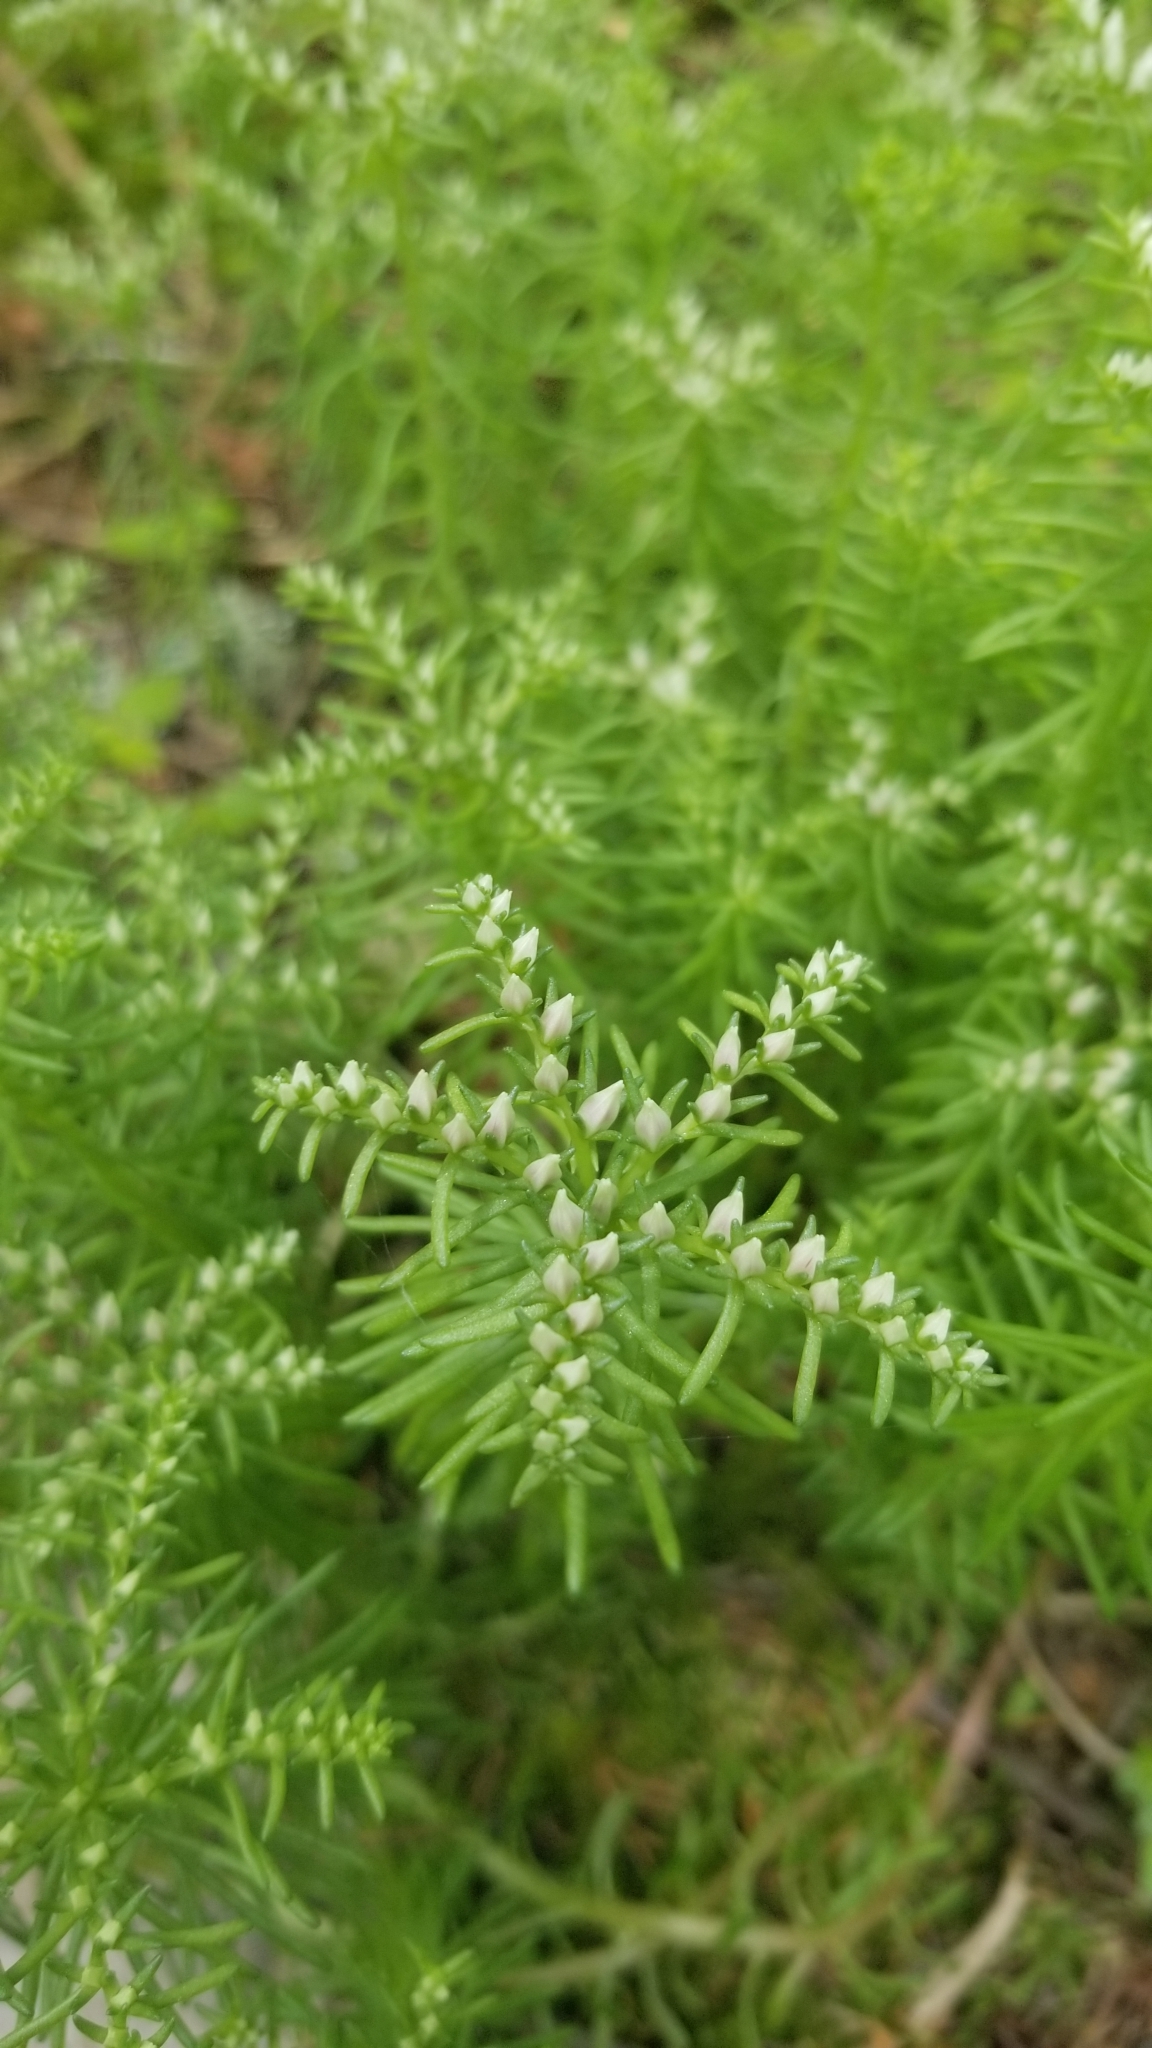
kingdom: Plantae
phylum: Tracheophyta
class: Magnoliopsida
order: Saxifragales
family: Crassulaceae
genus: Sedum
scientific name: Sedum pulchellum
